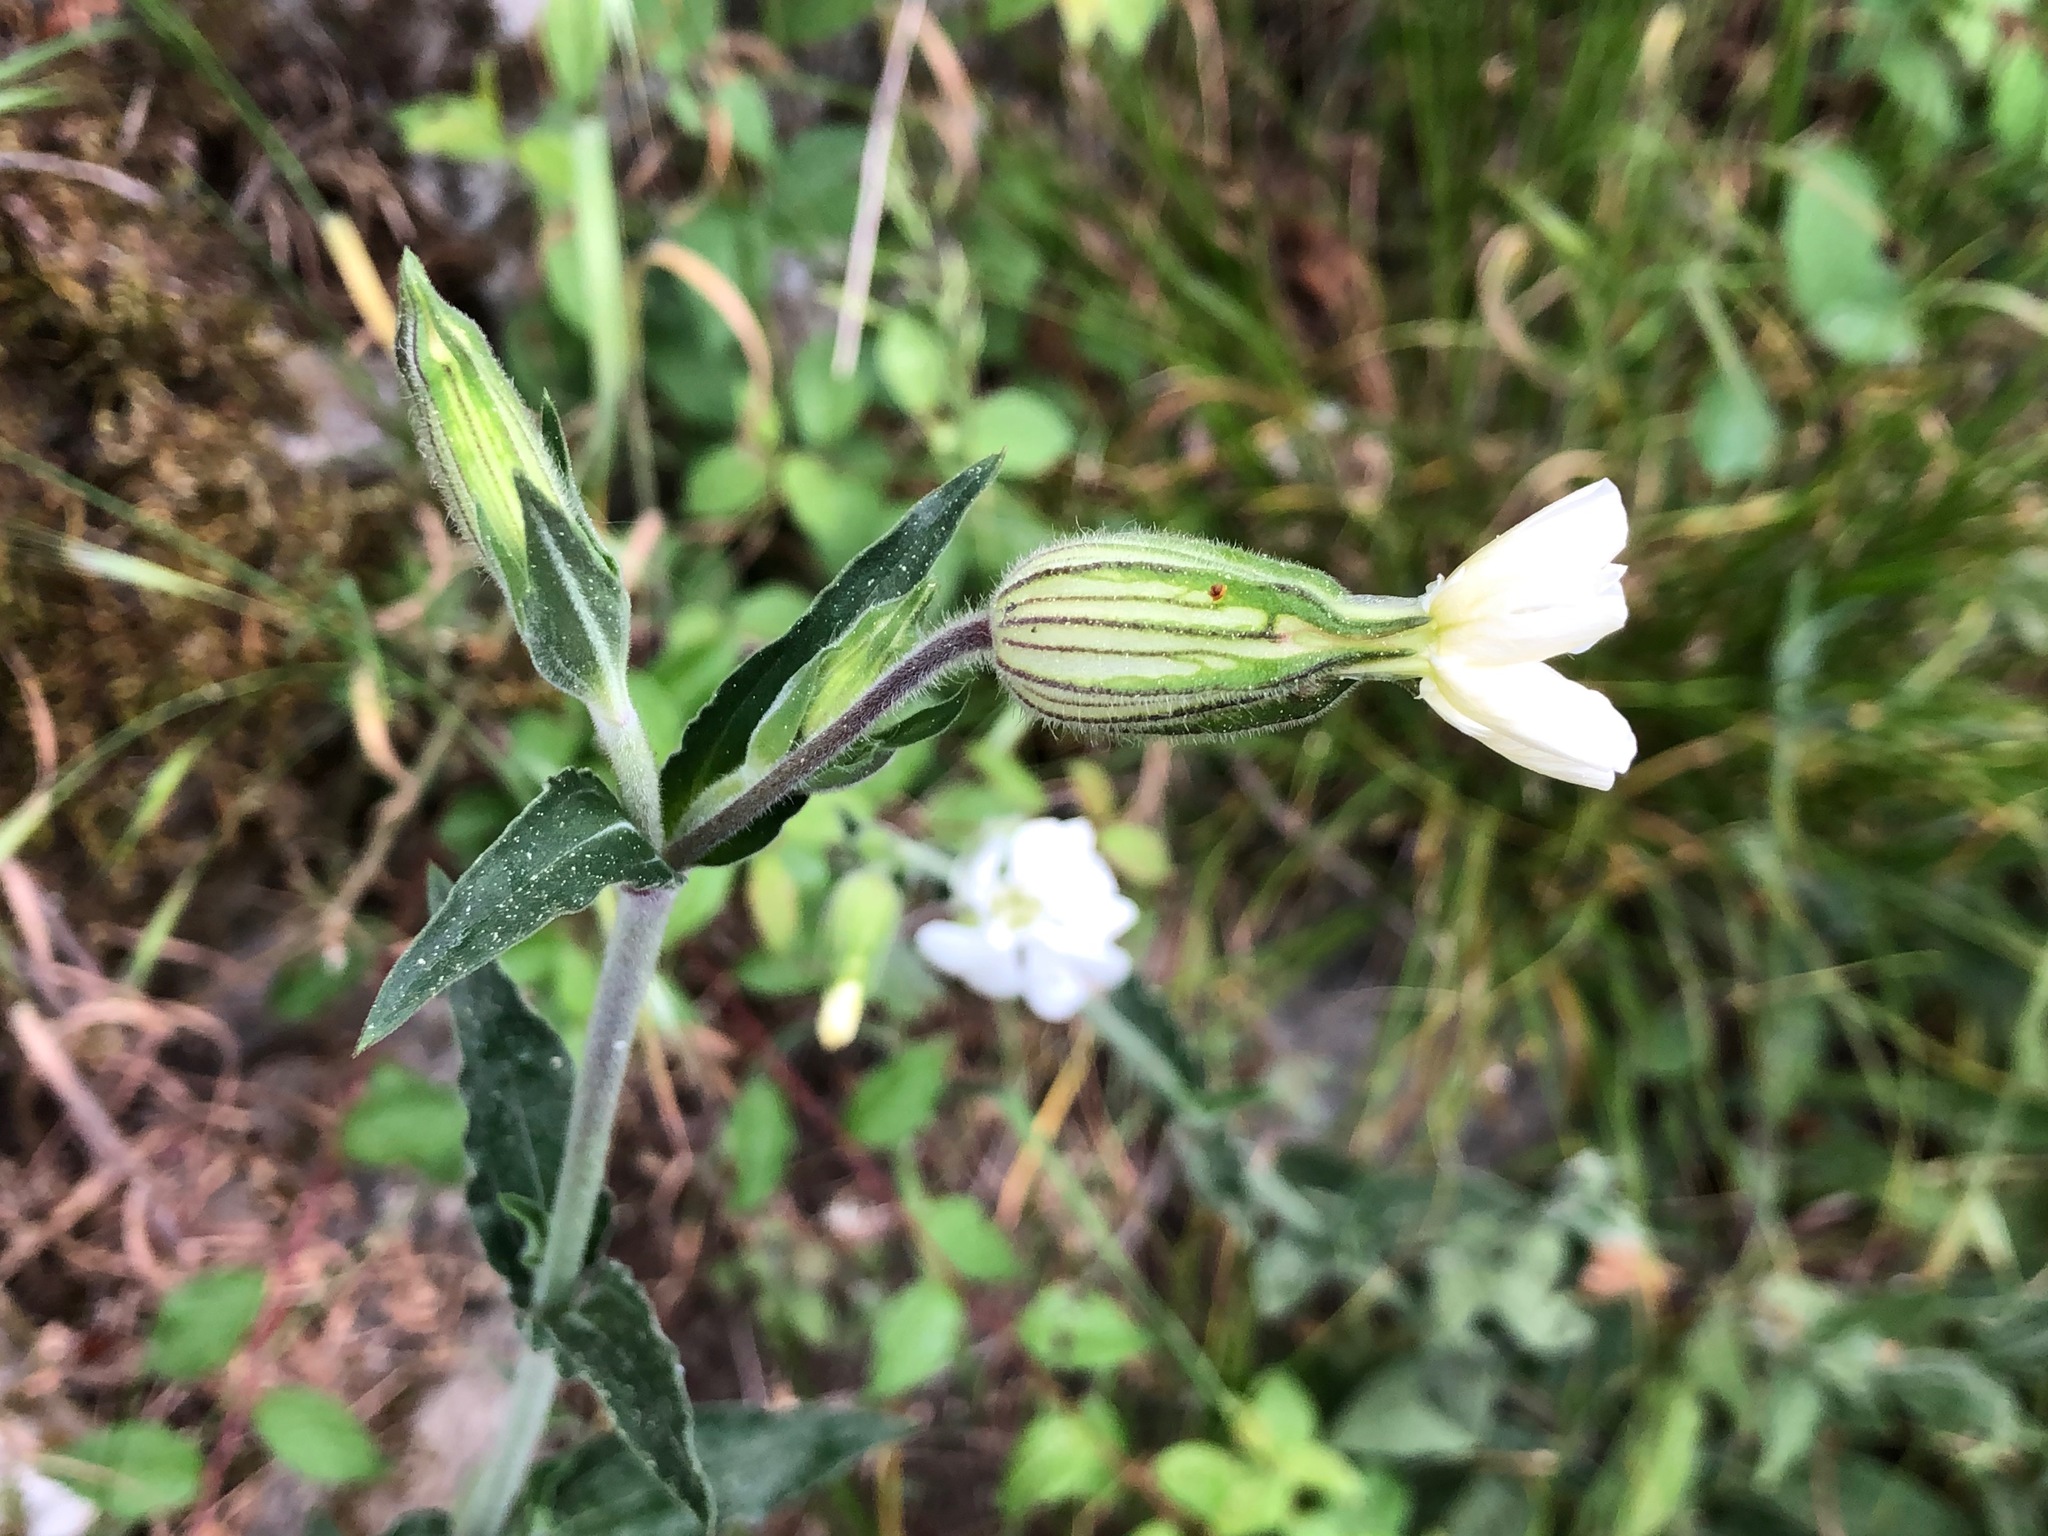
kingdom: Plantae
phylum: Tracheophyta
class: Magnoliopsida
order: Caryophyllales
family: Caryophyllaceae
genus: Silene
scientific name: Silene latifolia
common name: White campion
